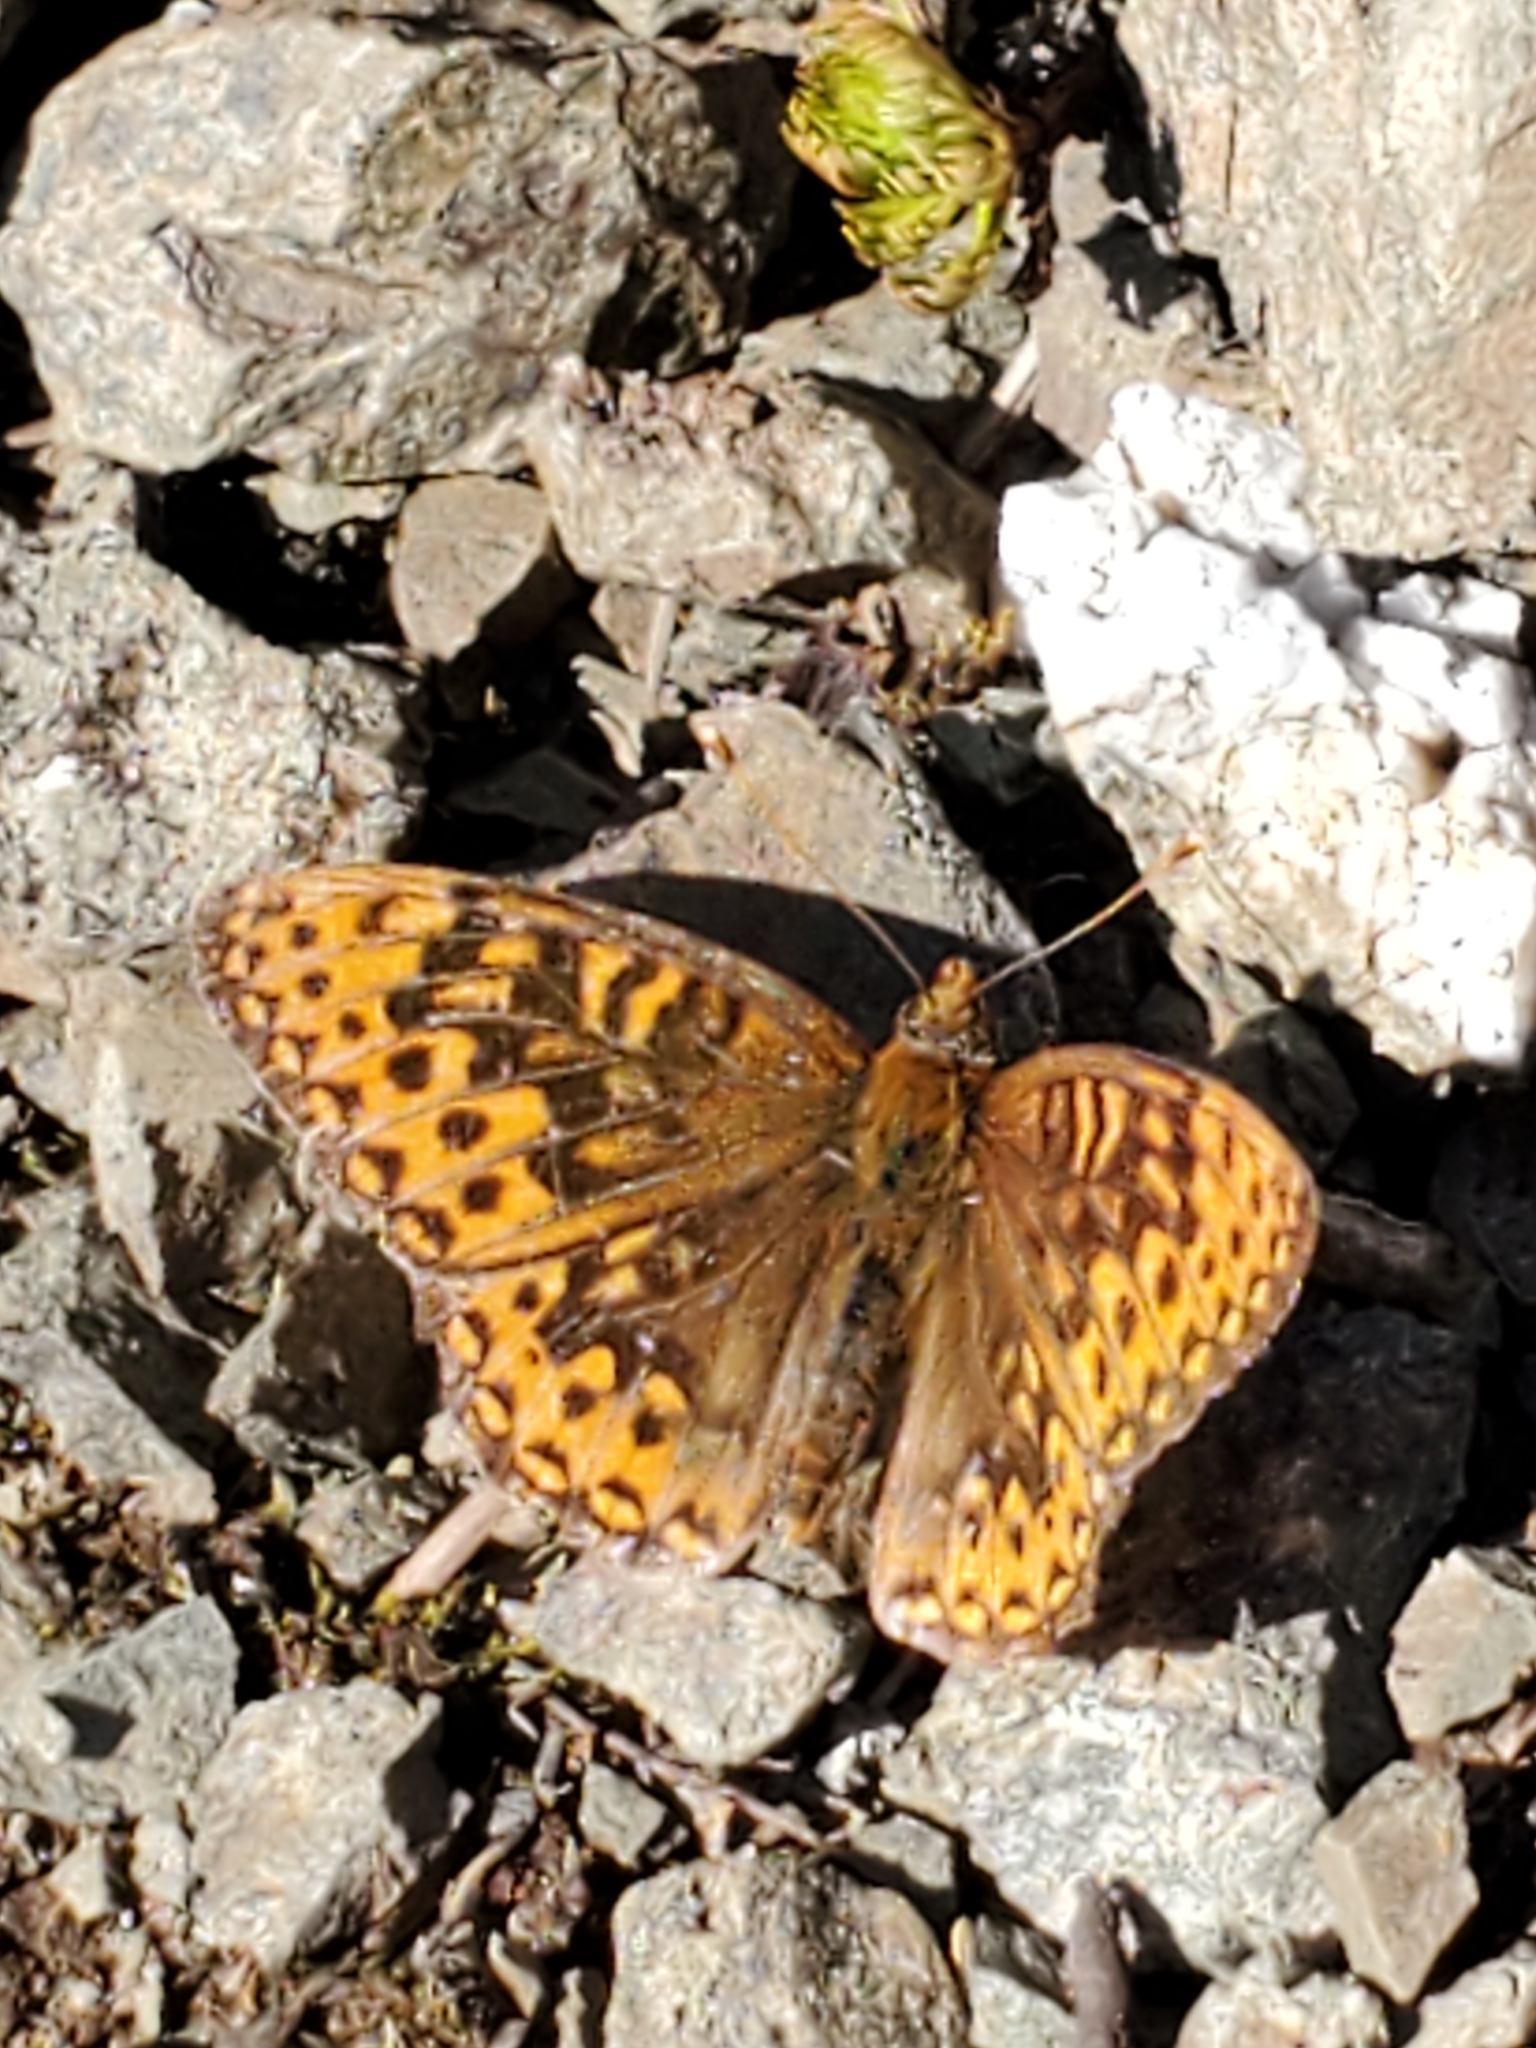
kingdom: Animalia
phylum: Arthropoda
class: Insecta
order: Lepidoptera
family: Nymphalidae
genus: Speyeria
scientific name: Speyeria hydaspe
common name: Hydaspe fritillary
